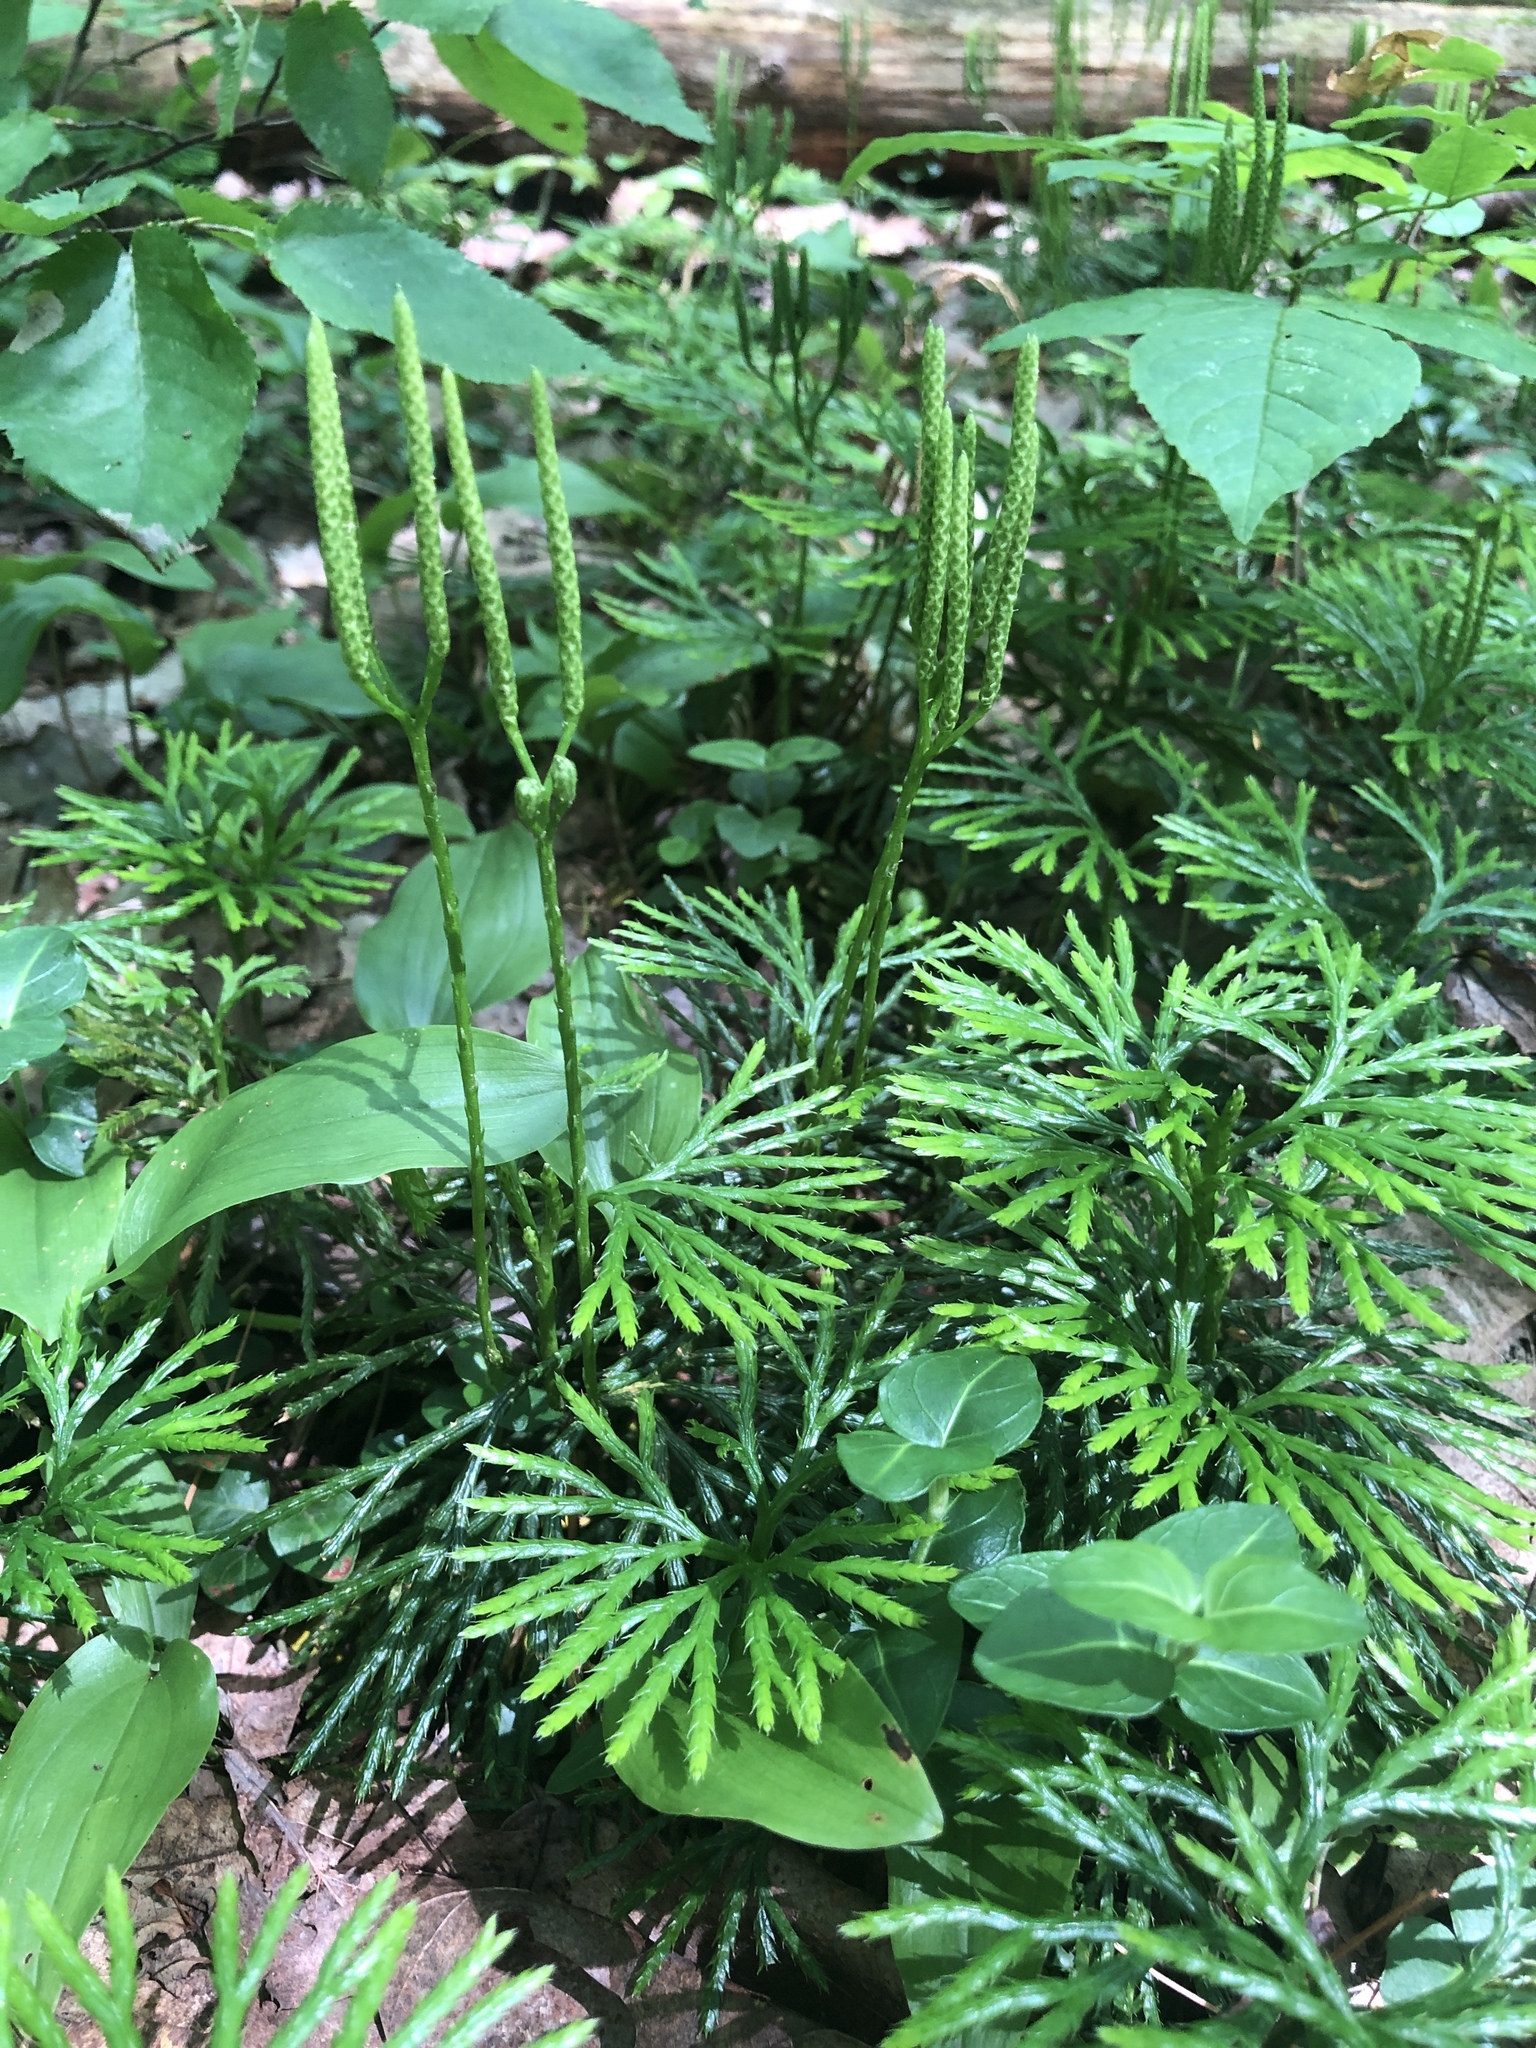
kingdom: Plantae
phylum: Tracheophyta
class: Lycopodiopsida
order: Lycopodiales
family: Lycopodiaceae
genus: Diphasiastrum
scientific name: Diphasiastrum digitatum
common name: Southern running-pine
